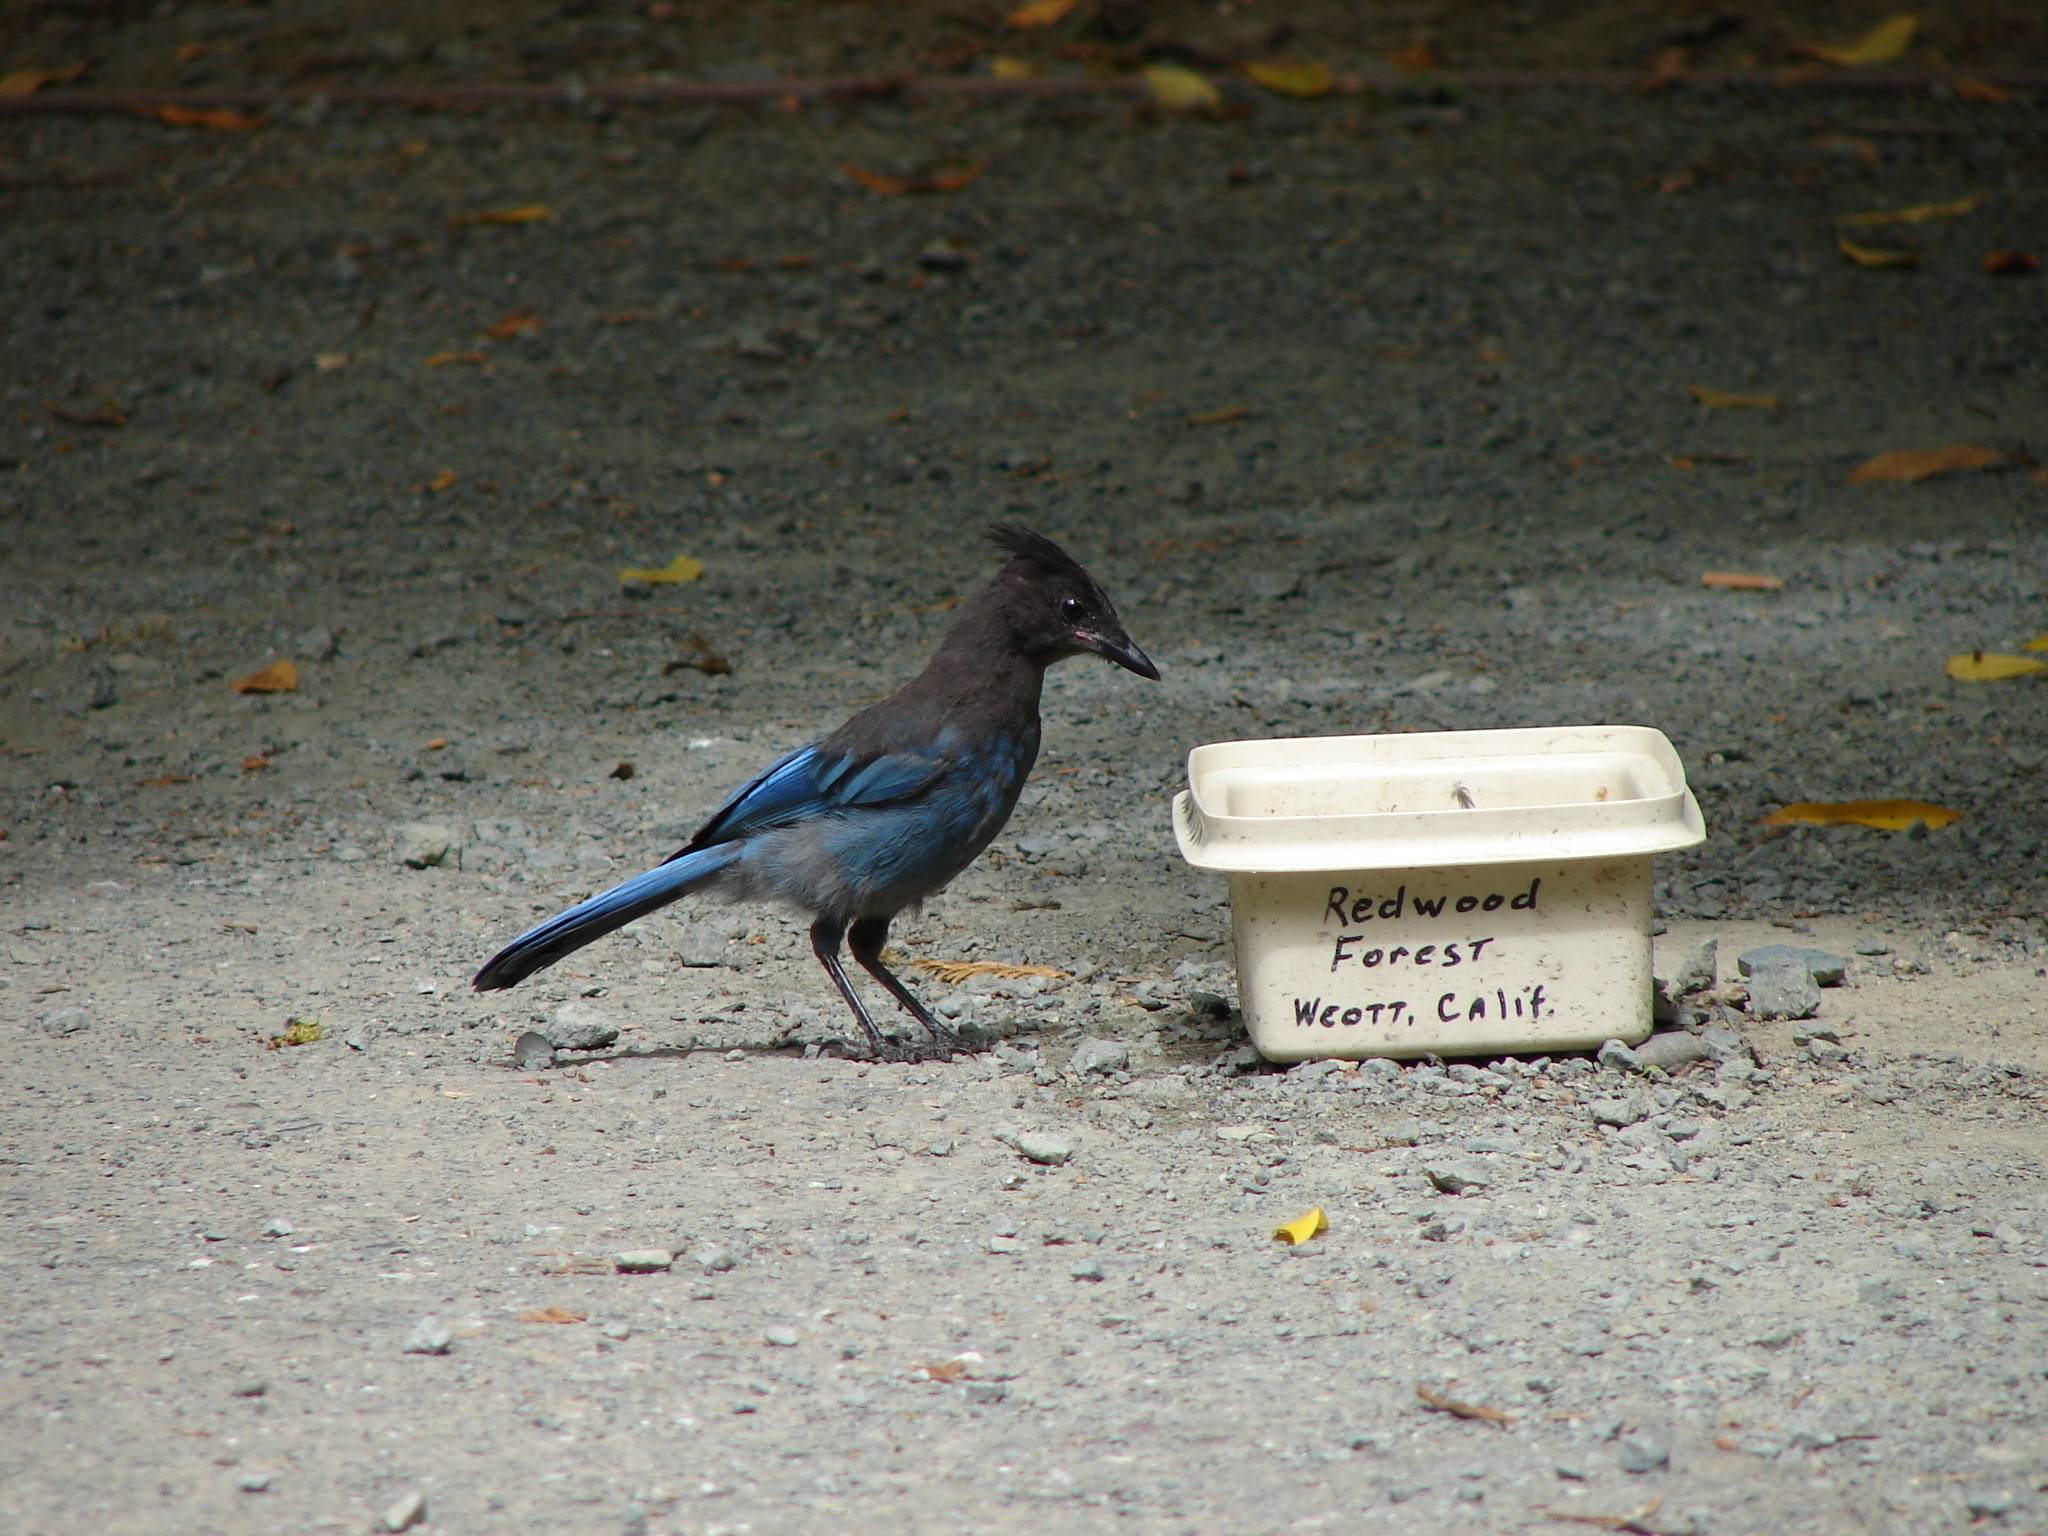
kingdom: Animalia
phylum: Chordata
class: Aves
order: Passeriformes
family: Corvidae
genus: Cyanocitta
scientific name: Cyanocitta stelleri
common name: Steller's jay
